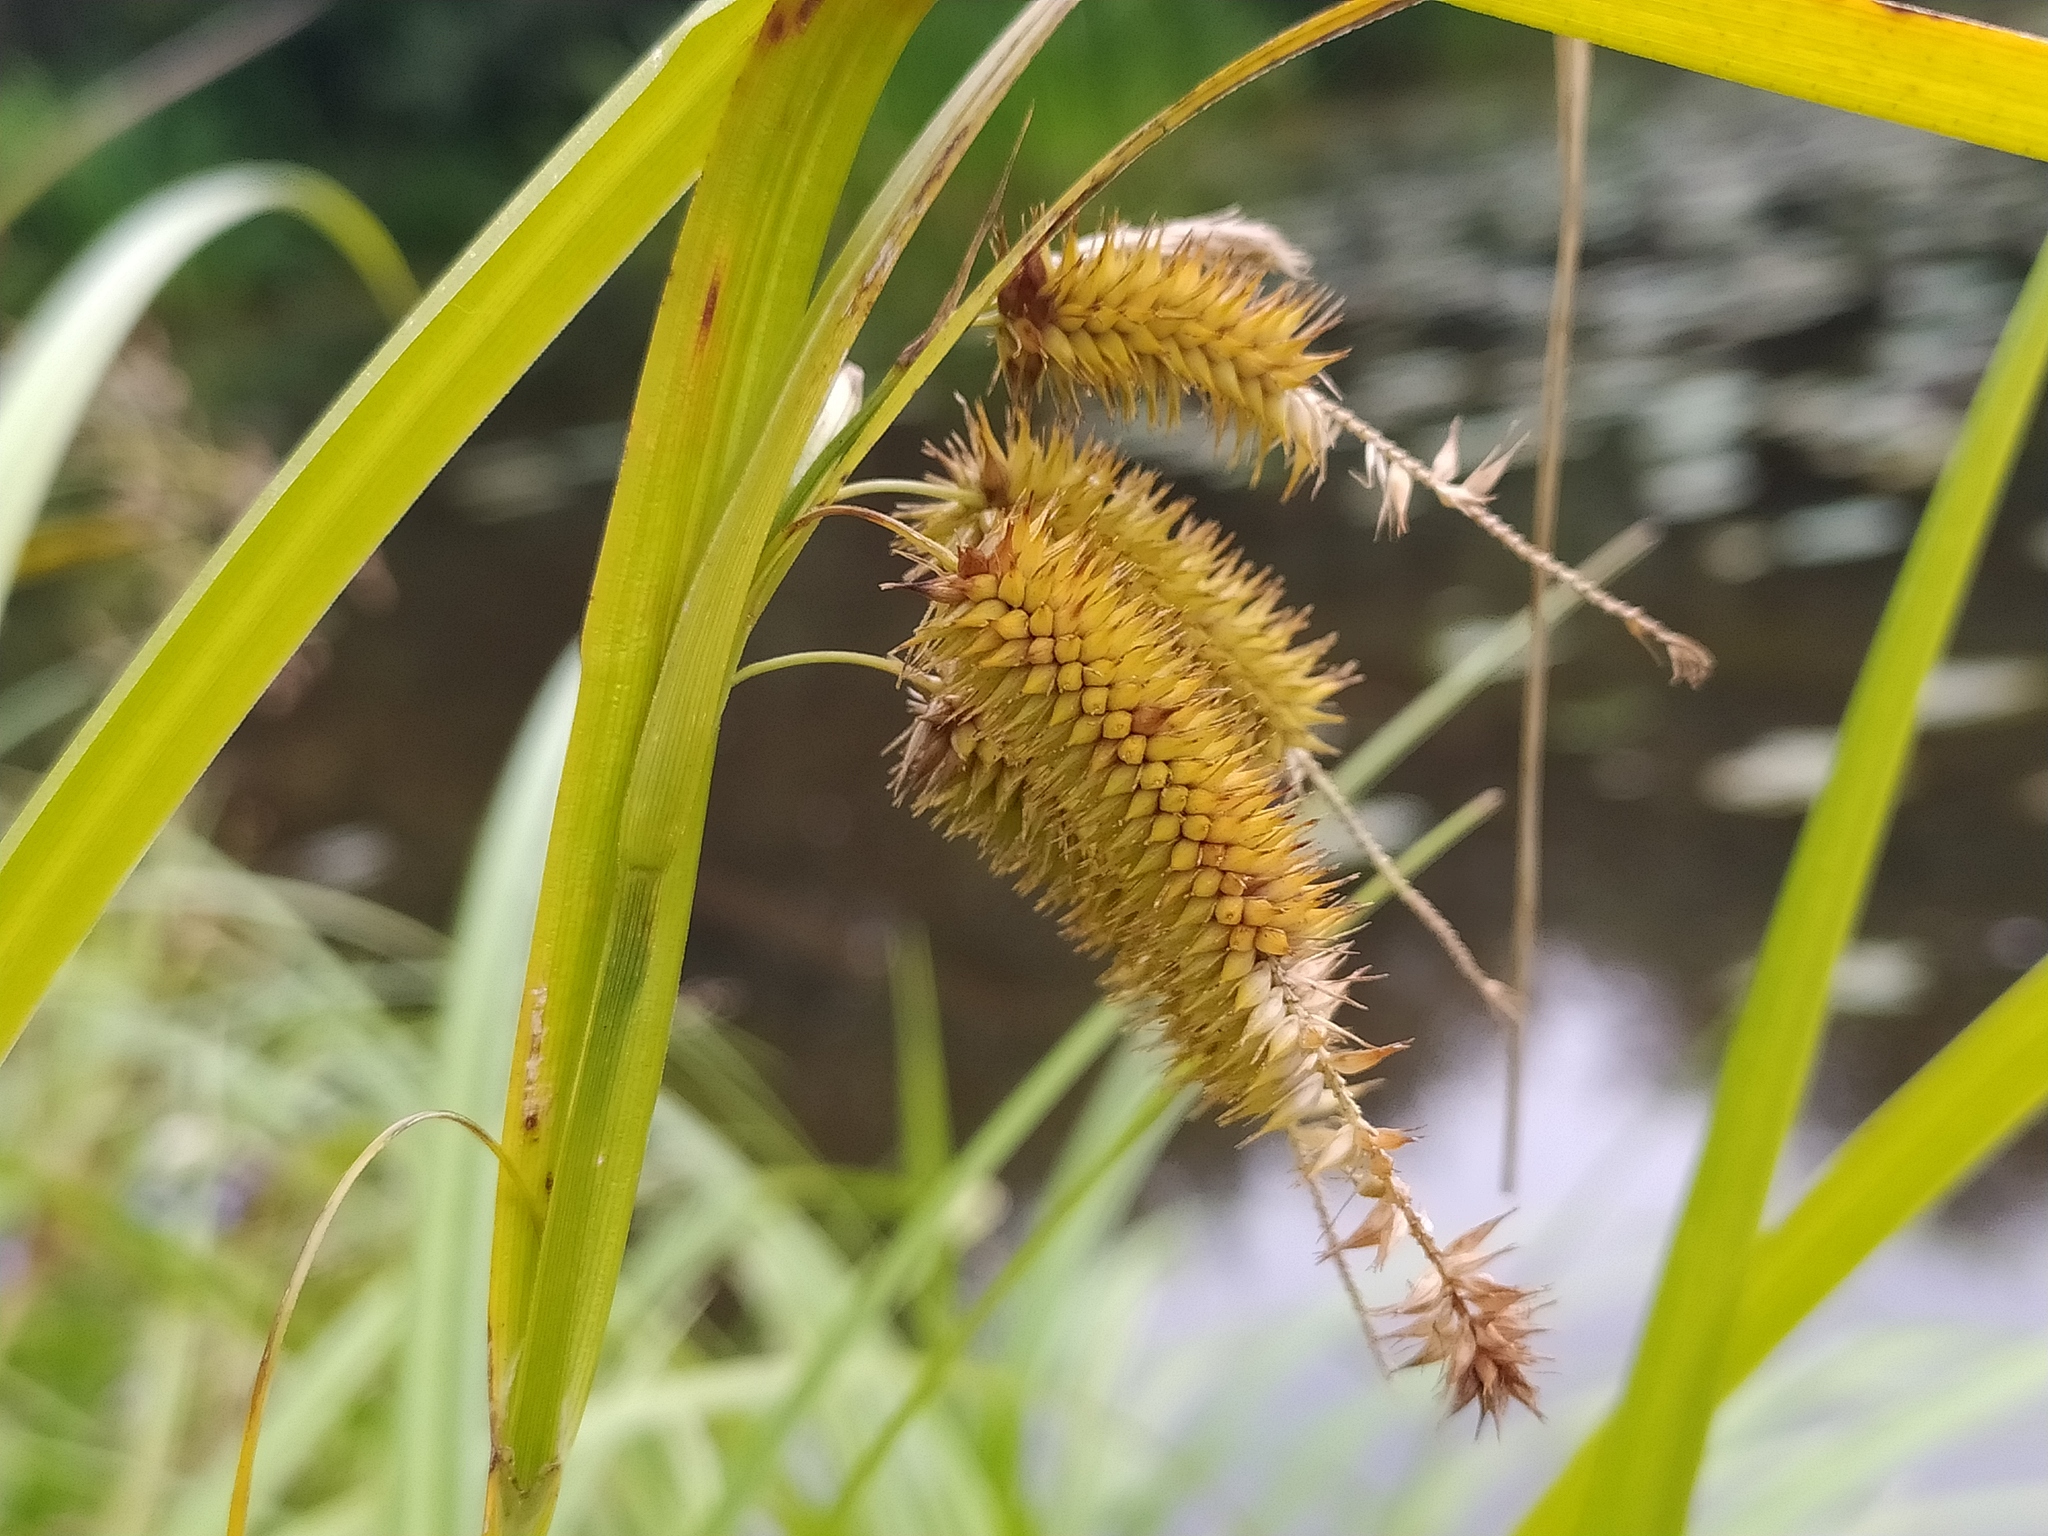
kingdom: Plantae
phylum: Tracheophyta
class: Liliopsida
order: Poales
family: Cyperaceae
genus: Carex
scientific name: Carex pseudocyperus
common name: Cyperus sedge
